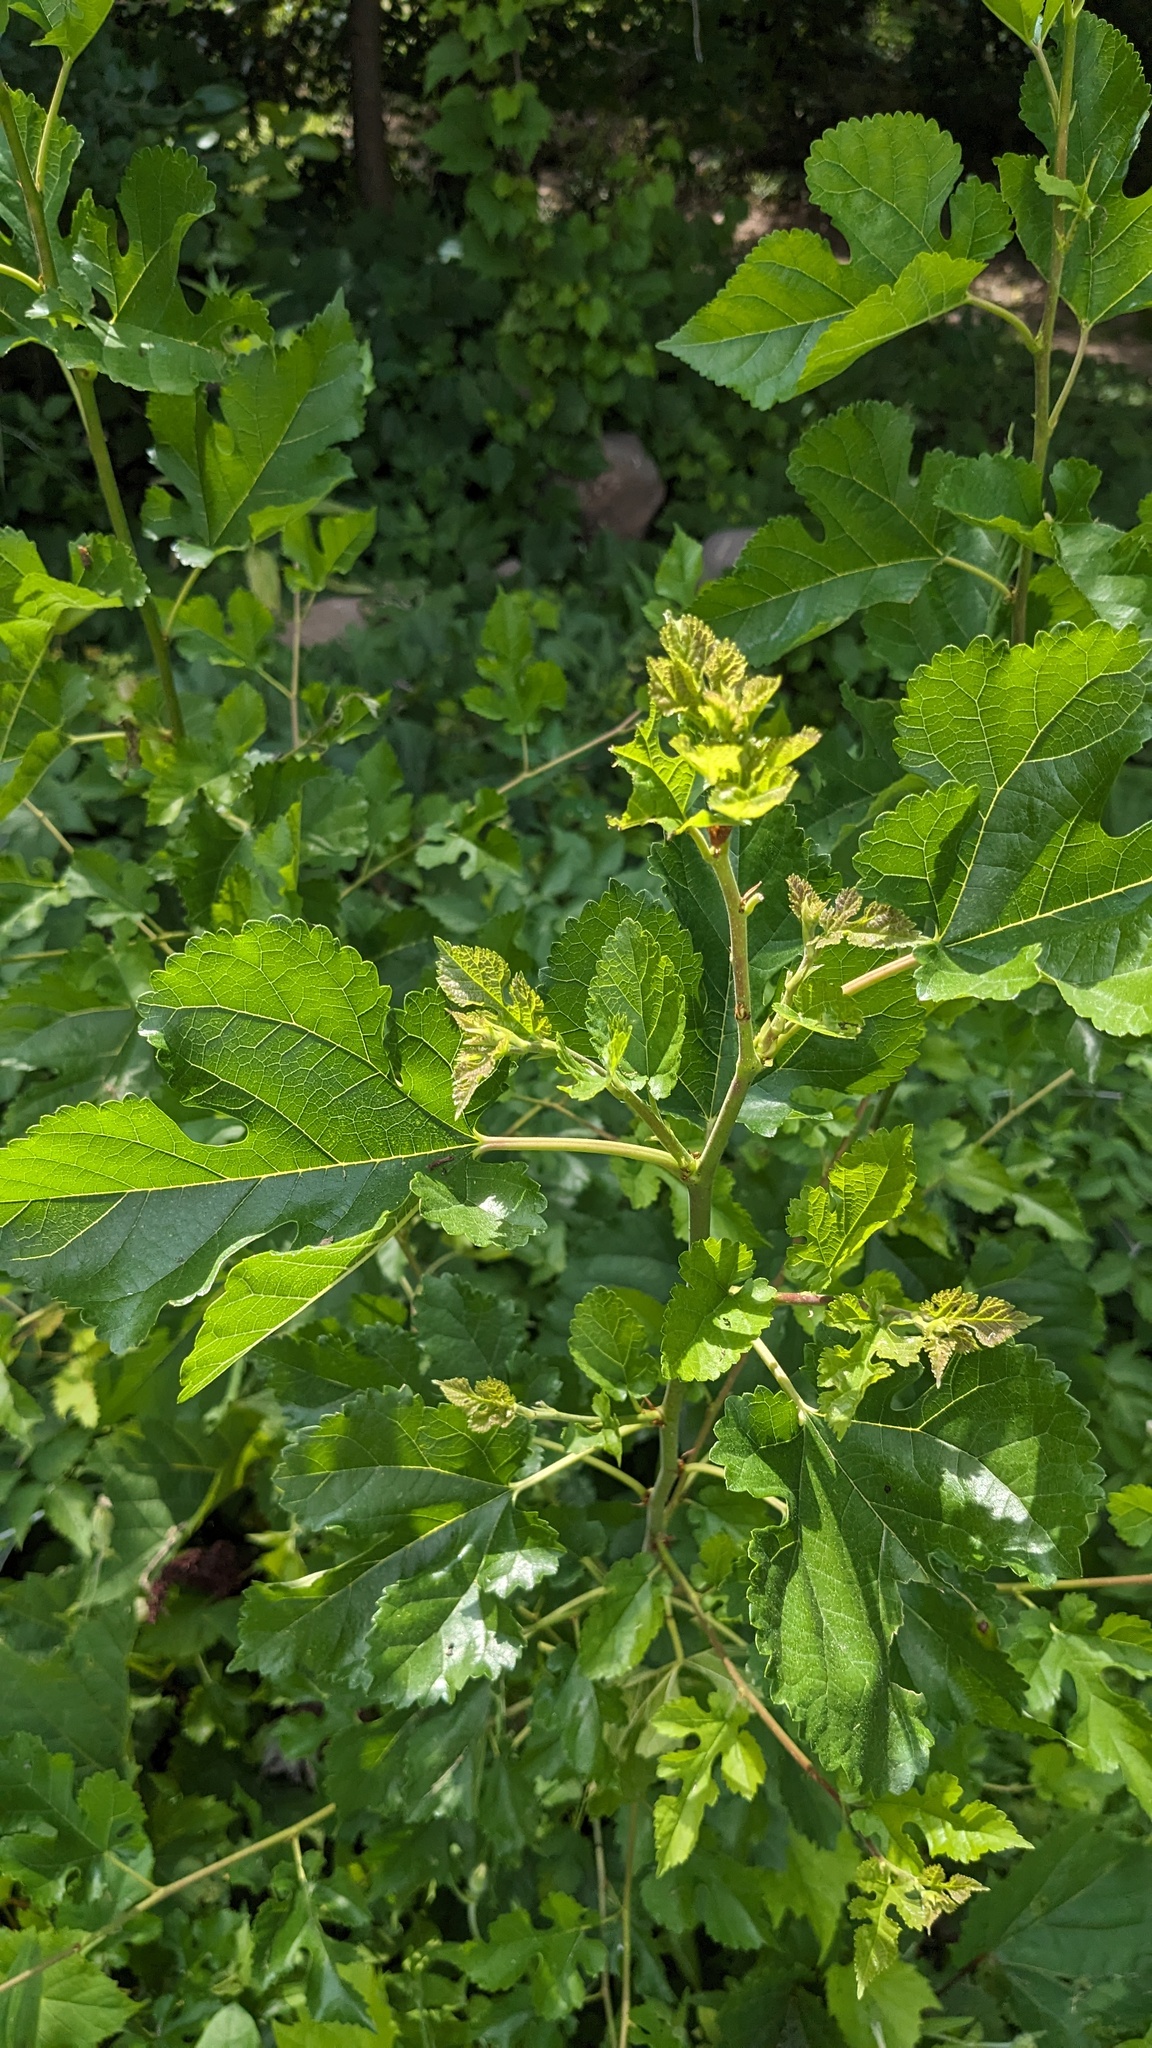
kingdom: Plantae
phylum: Tracheophyta
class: Magnoliopsida
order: Rosales
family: Moraceae
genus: Morus
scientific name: Morus alba
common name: White mulberry
